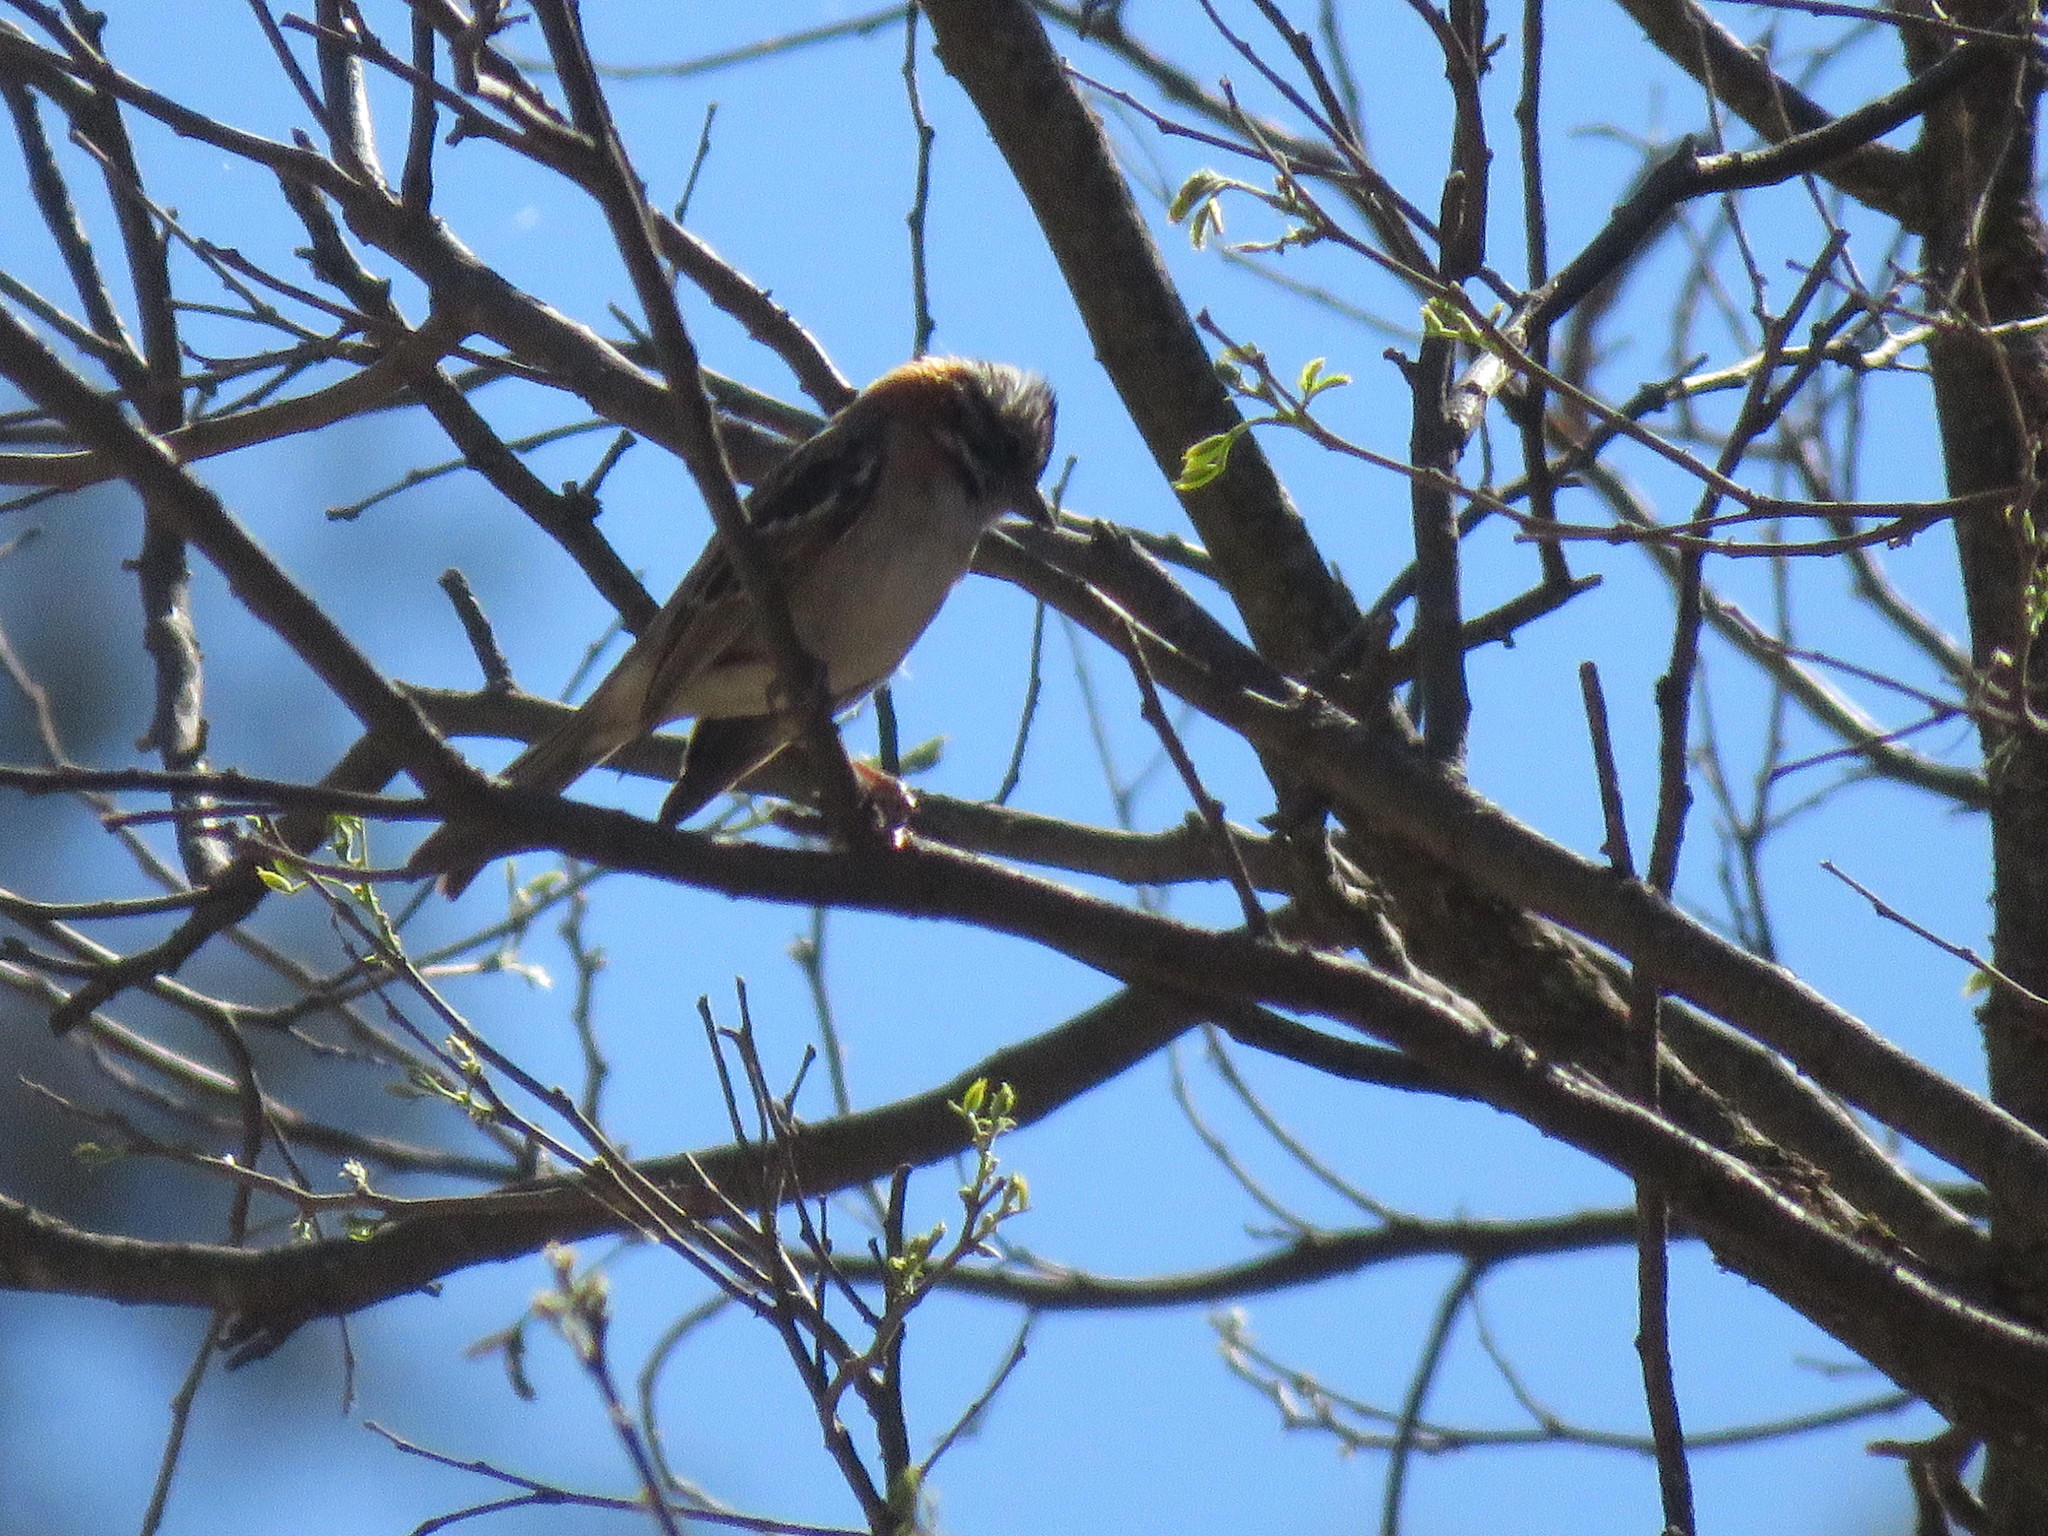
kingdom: Animalia
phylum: Chordata
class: Aves
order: Passeriformes
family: Passerellidae
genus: Zonotrichia
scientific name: Zonotrichia capensis
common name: Rufous-collared sparrow
